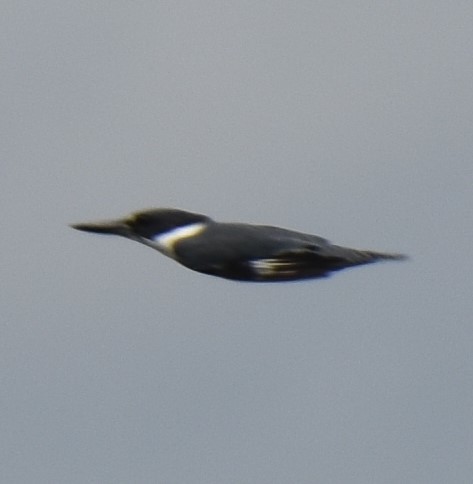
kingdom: Animalia
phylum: Chordata
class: Aves
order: Coraciiformes
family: Alcedinidae
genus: Megaceryle
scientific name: Megaceryle alcyon
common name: Belted kingfisher
